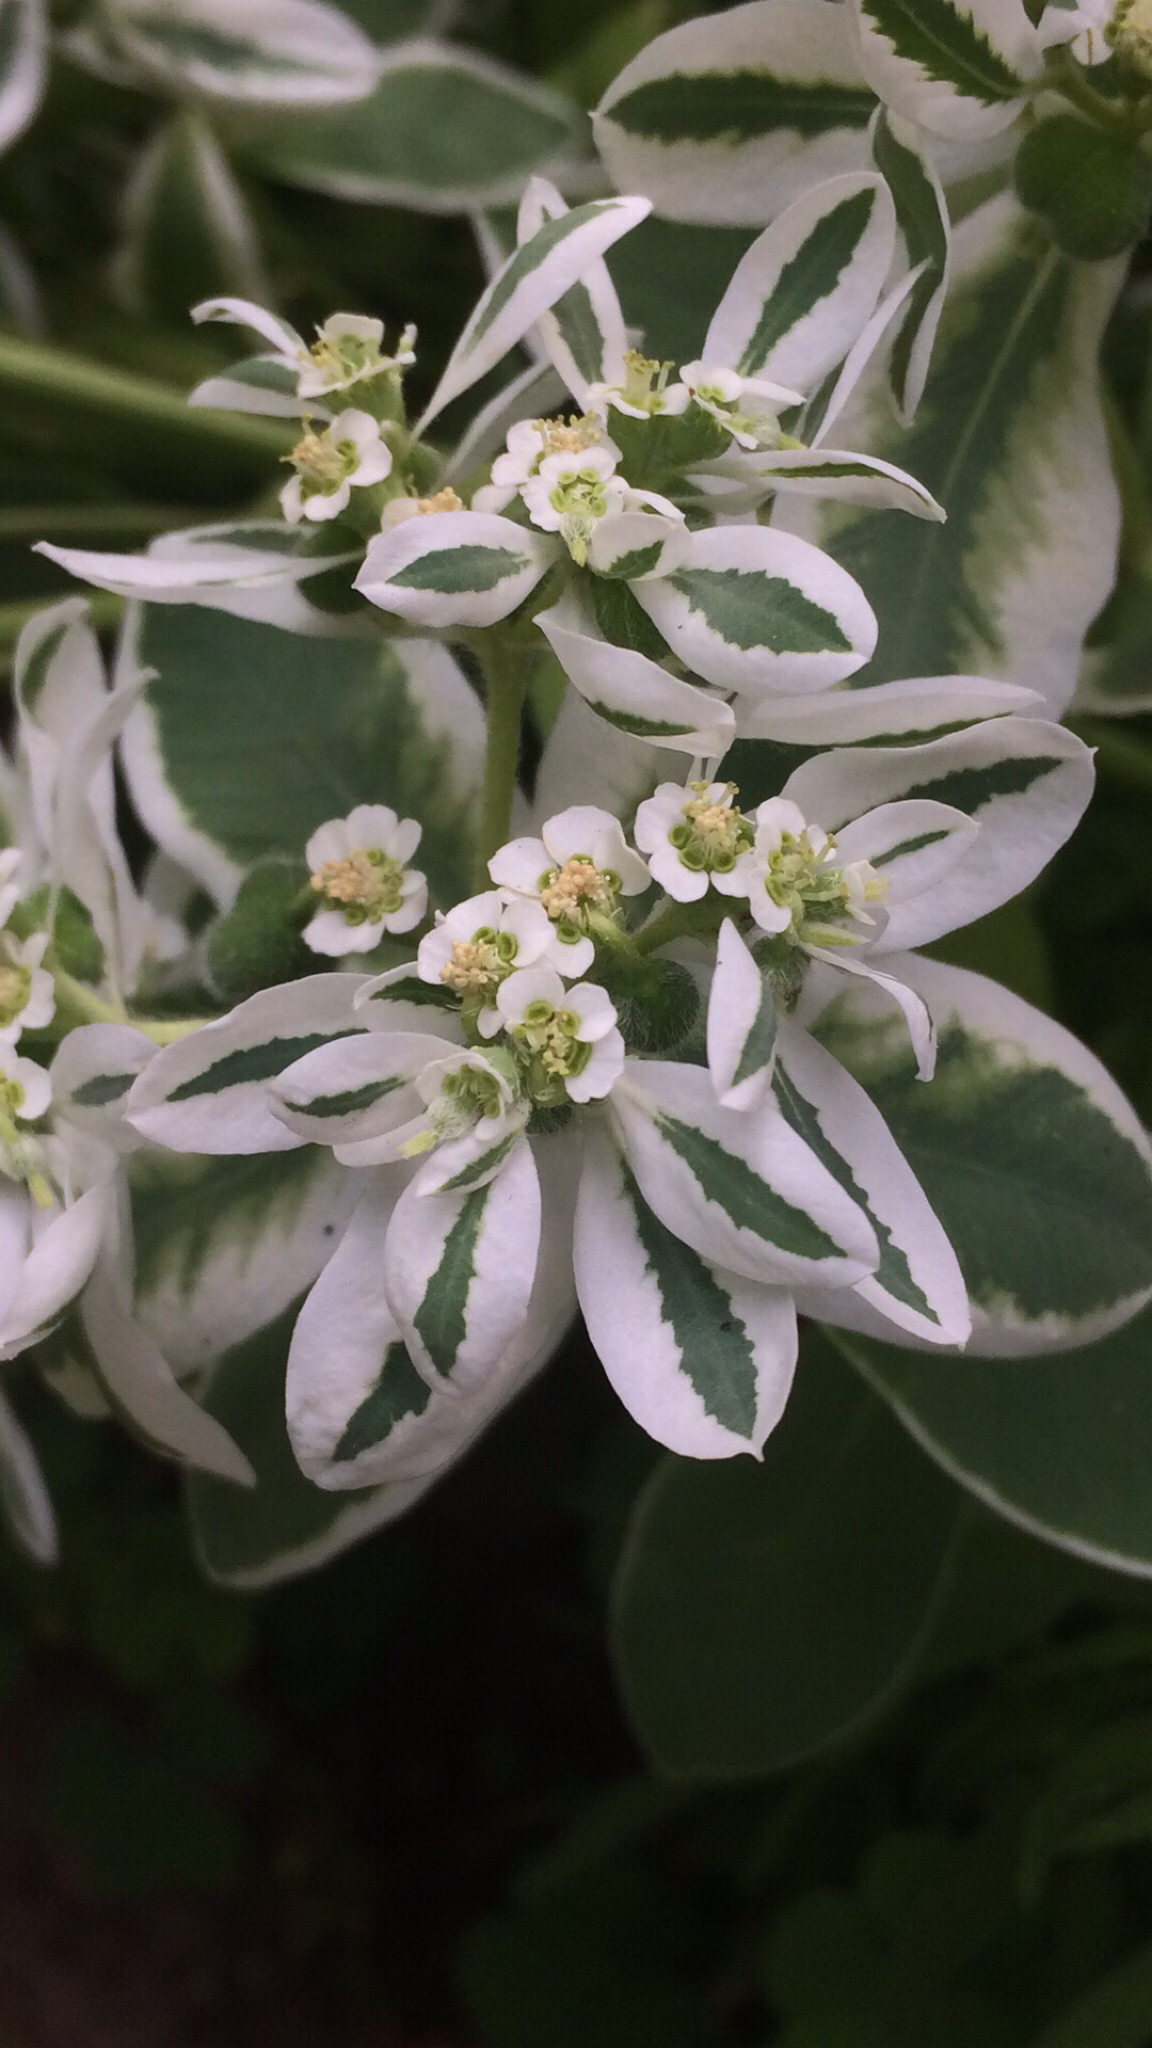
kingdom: Plantae
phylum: Tracheophyta
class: Magnoliopsida
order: Malpighiales
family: Euphorbiaceae
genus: Euphorbia
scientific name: Euphorbia marginata
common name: Ghostweed
